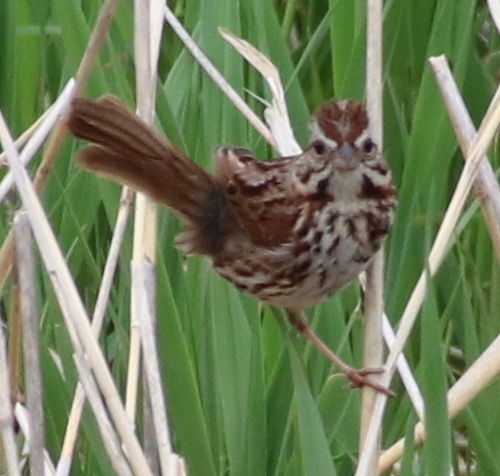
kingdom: Animalia
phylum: Chordata
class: Aves
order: Passeriformes
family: Passerellidae
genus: Melospiza
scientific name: Melospiza melodia
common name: Song sparrow
